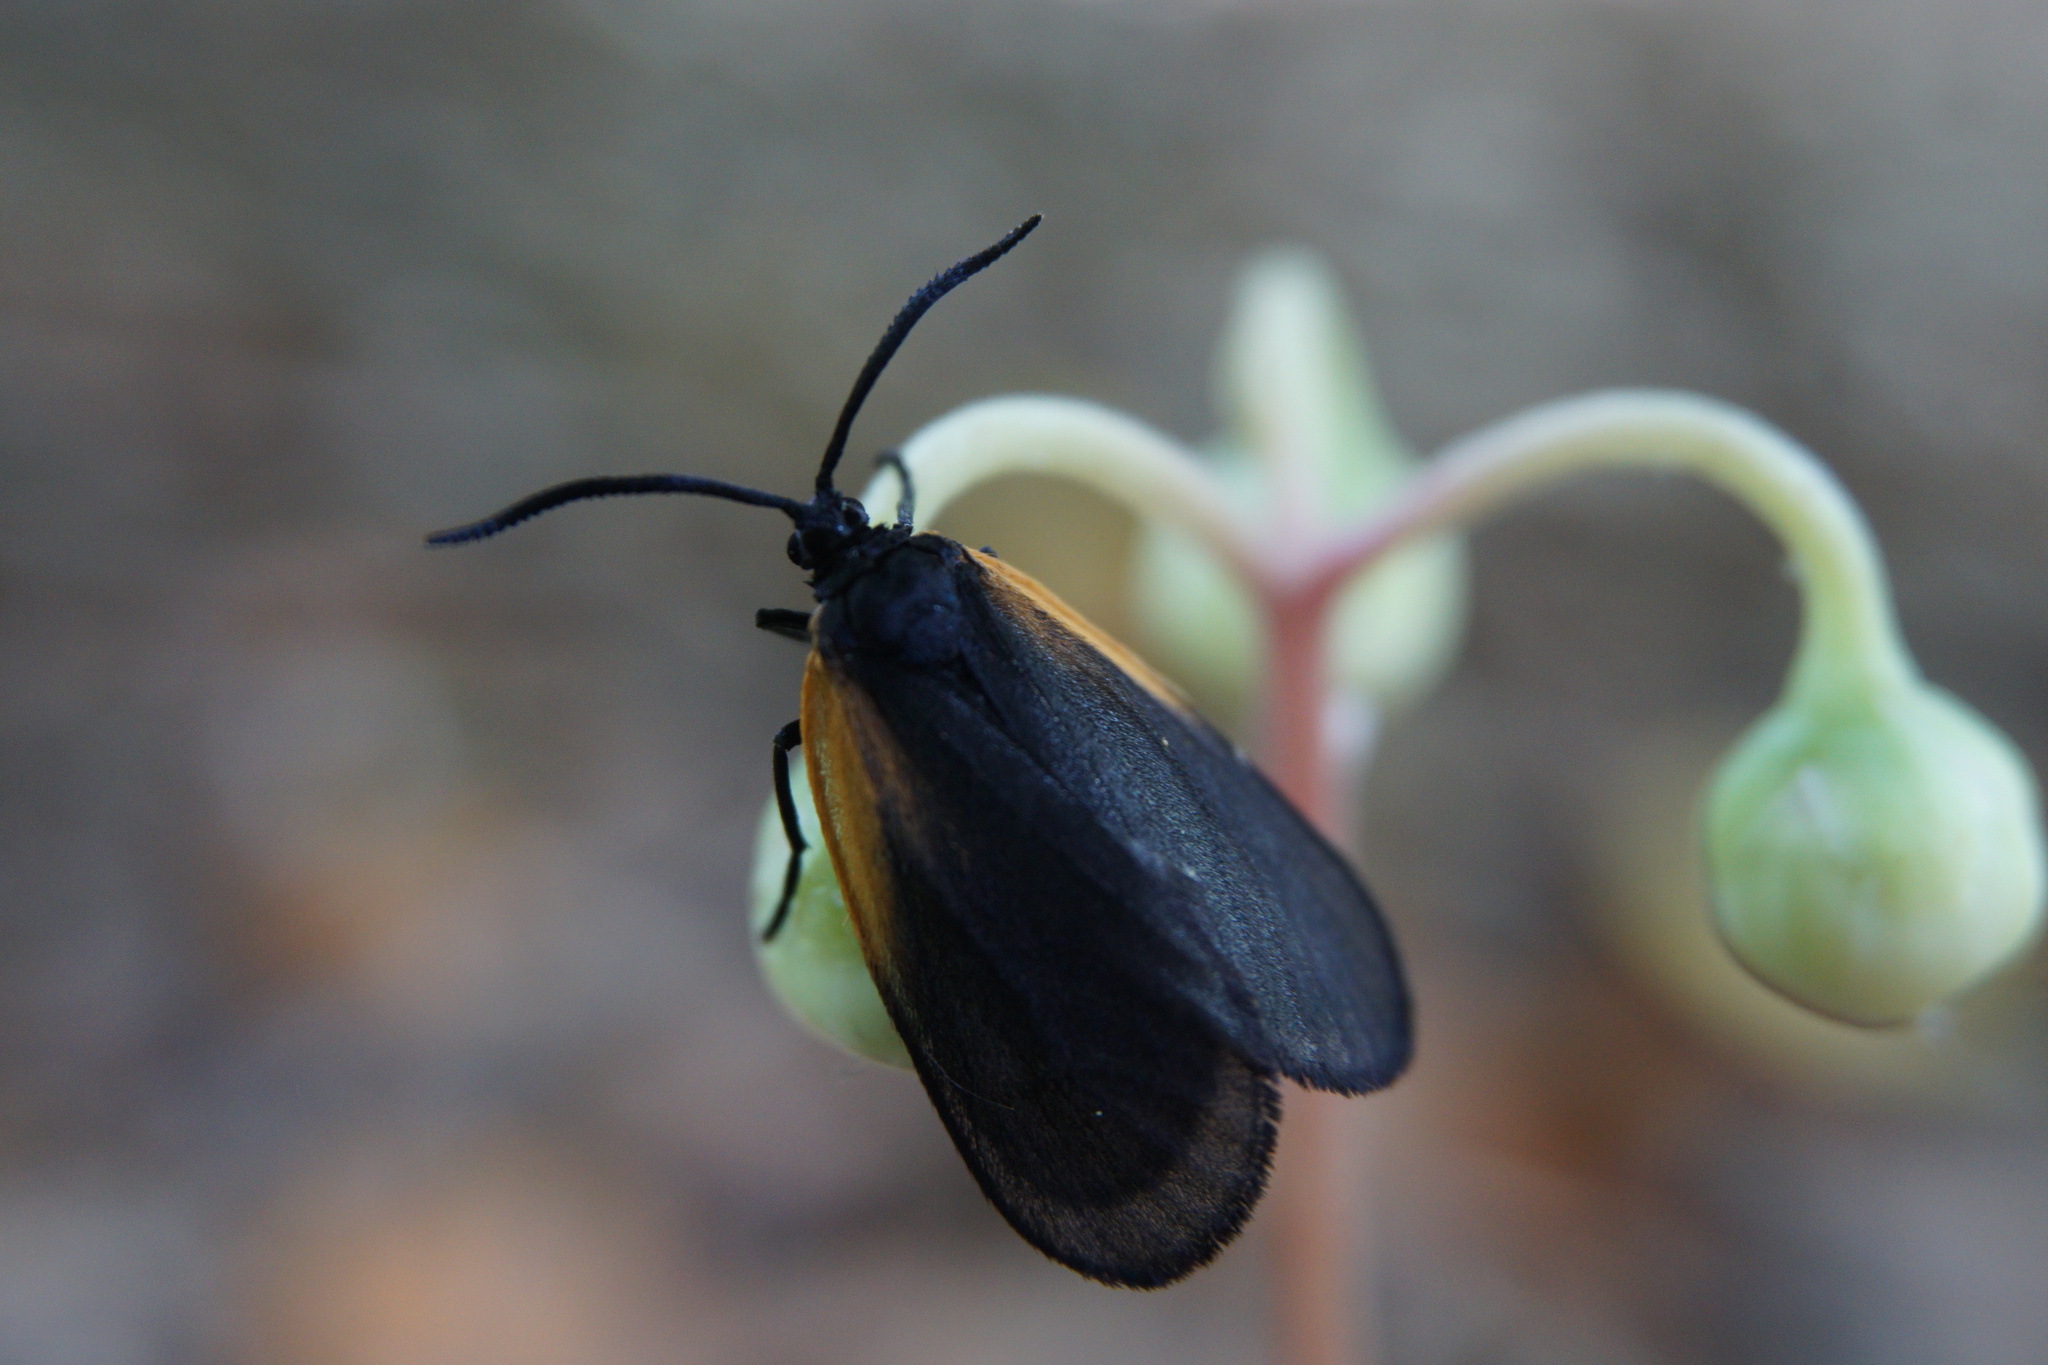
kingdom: Animalia
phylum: Arthropoda
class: Insecta
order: Lepidoptera
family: Zygaenidae
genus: Malthaca
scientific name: Malthaca dimidiata
